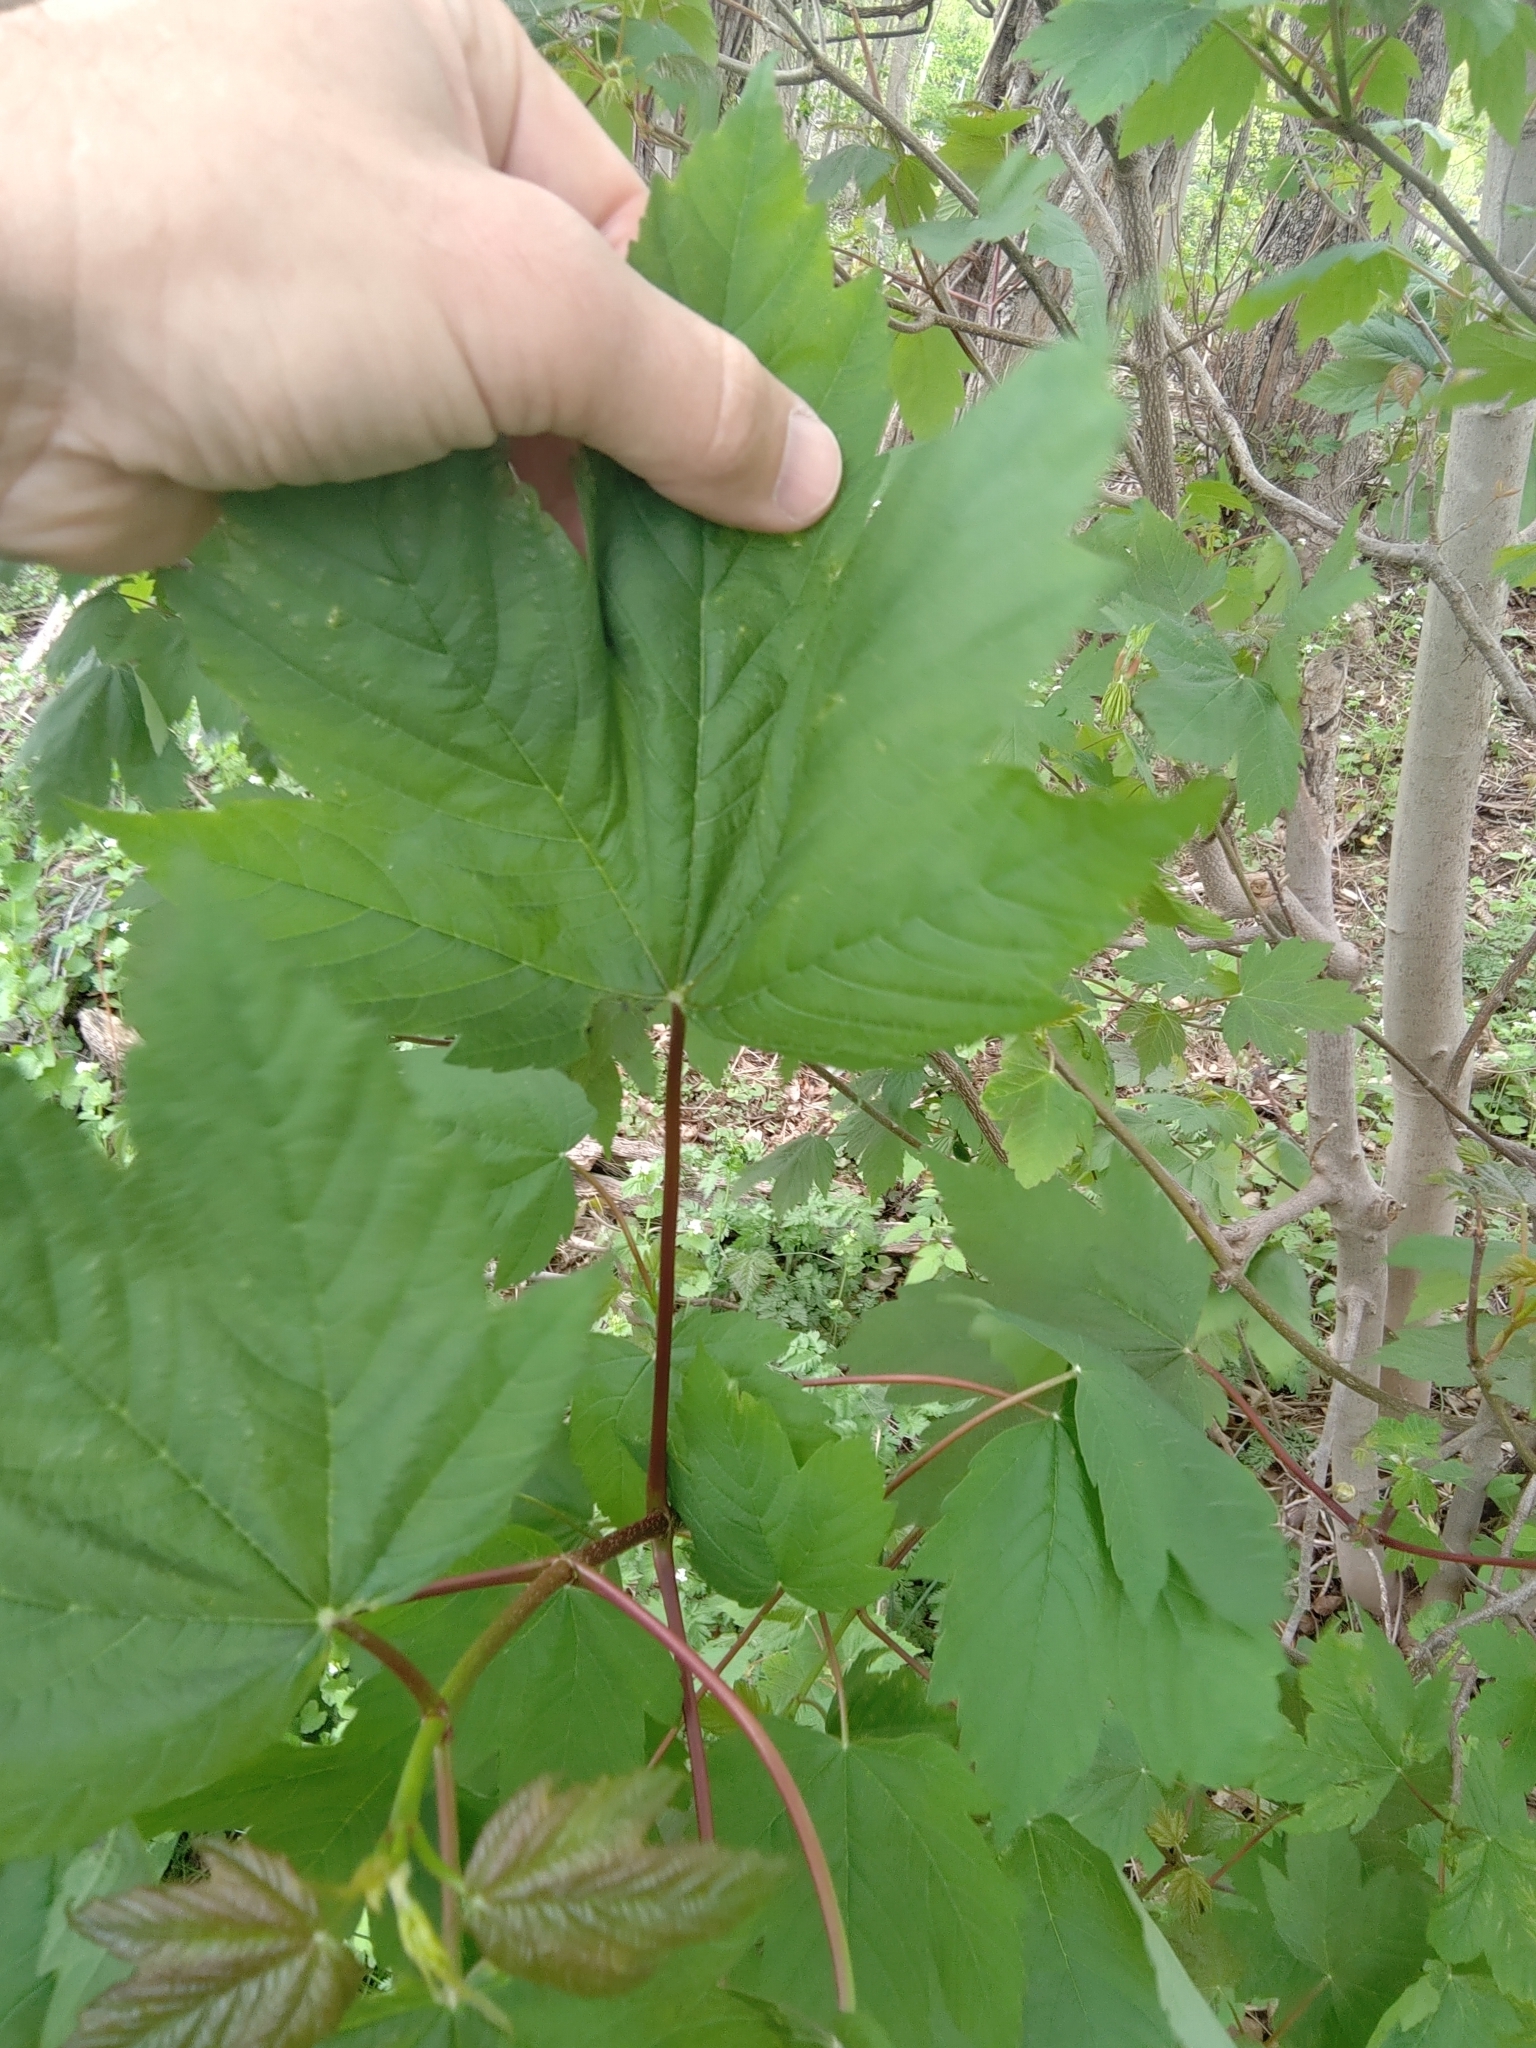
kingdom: Plantae
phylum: Tracheophyta
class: Magnoliopsida
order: Sapindales
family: Sapindaceae
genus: Acer
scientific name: Acer pseudoplatanus
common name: Sycamore
